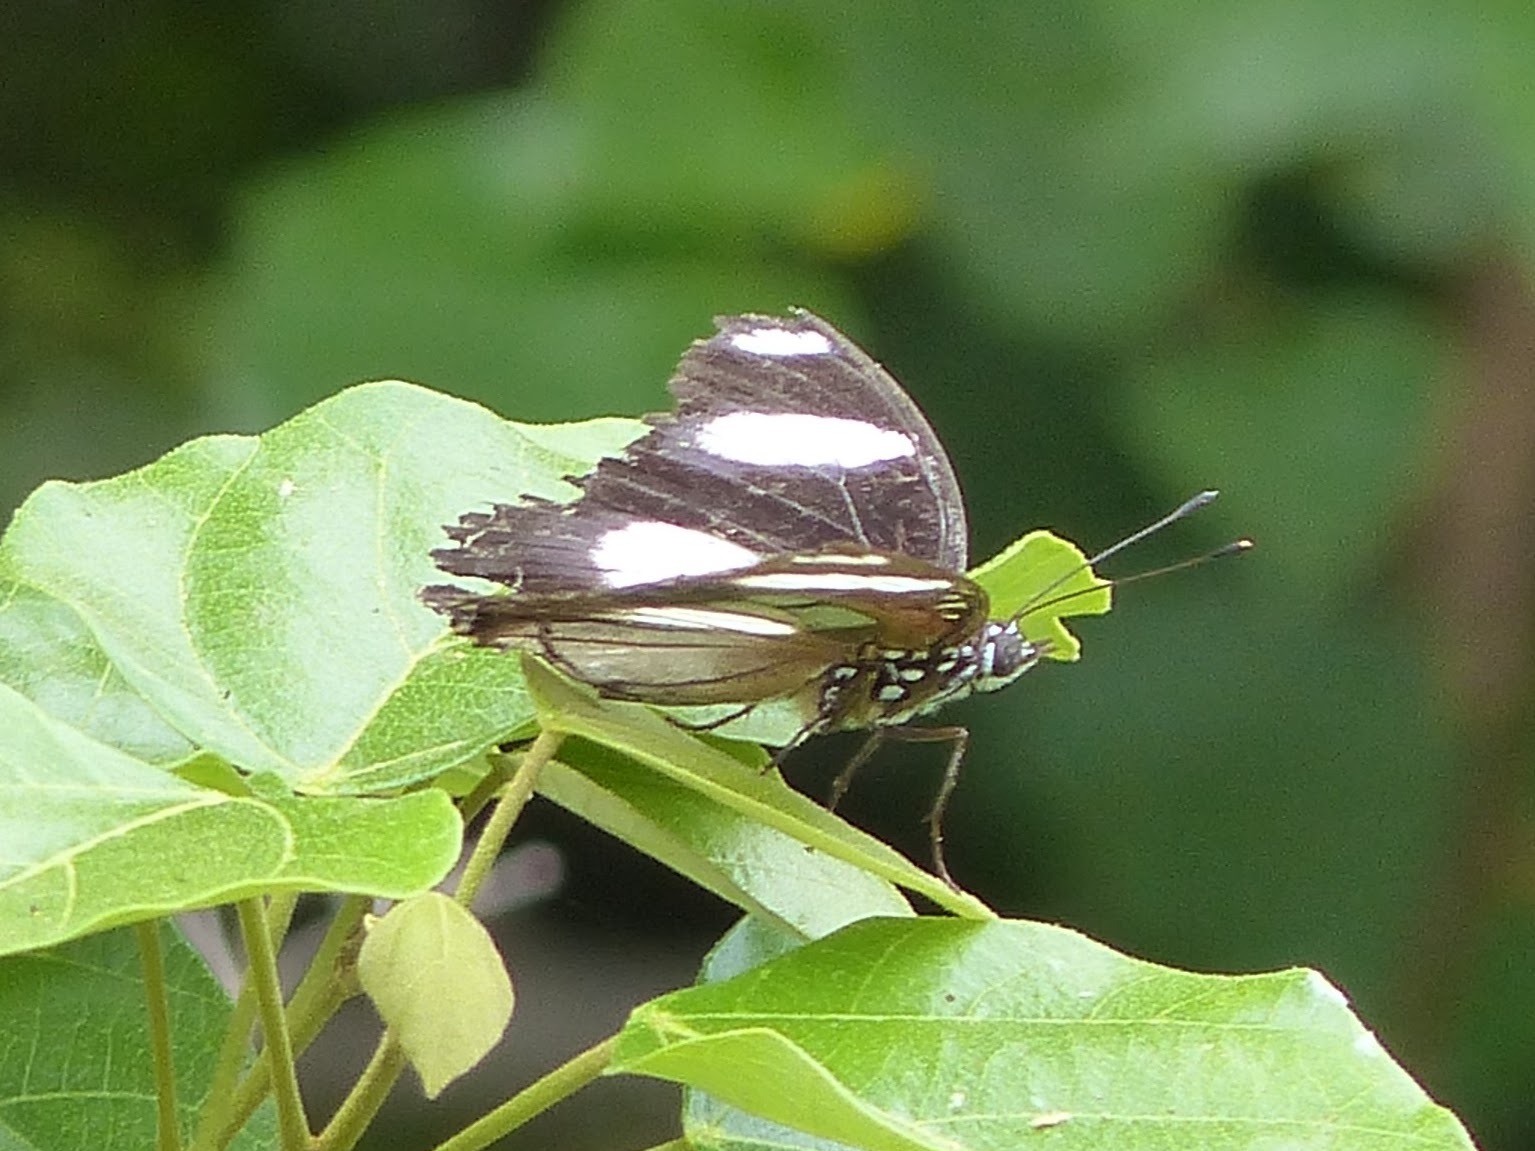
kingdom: Animalia
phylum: Arthropoda
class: Insecta
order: Lepidoptera
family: Nymphalidae
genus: Hypolimnas
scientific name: Hypolimnas misippus
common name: False plain tiger
